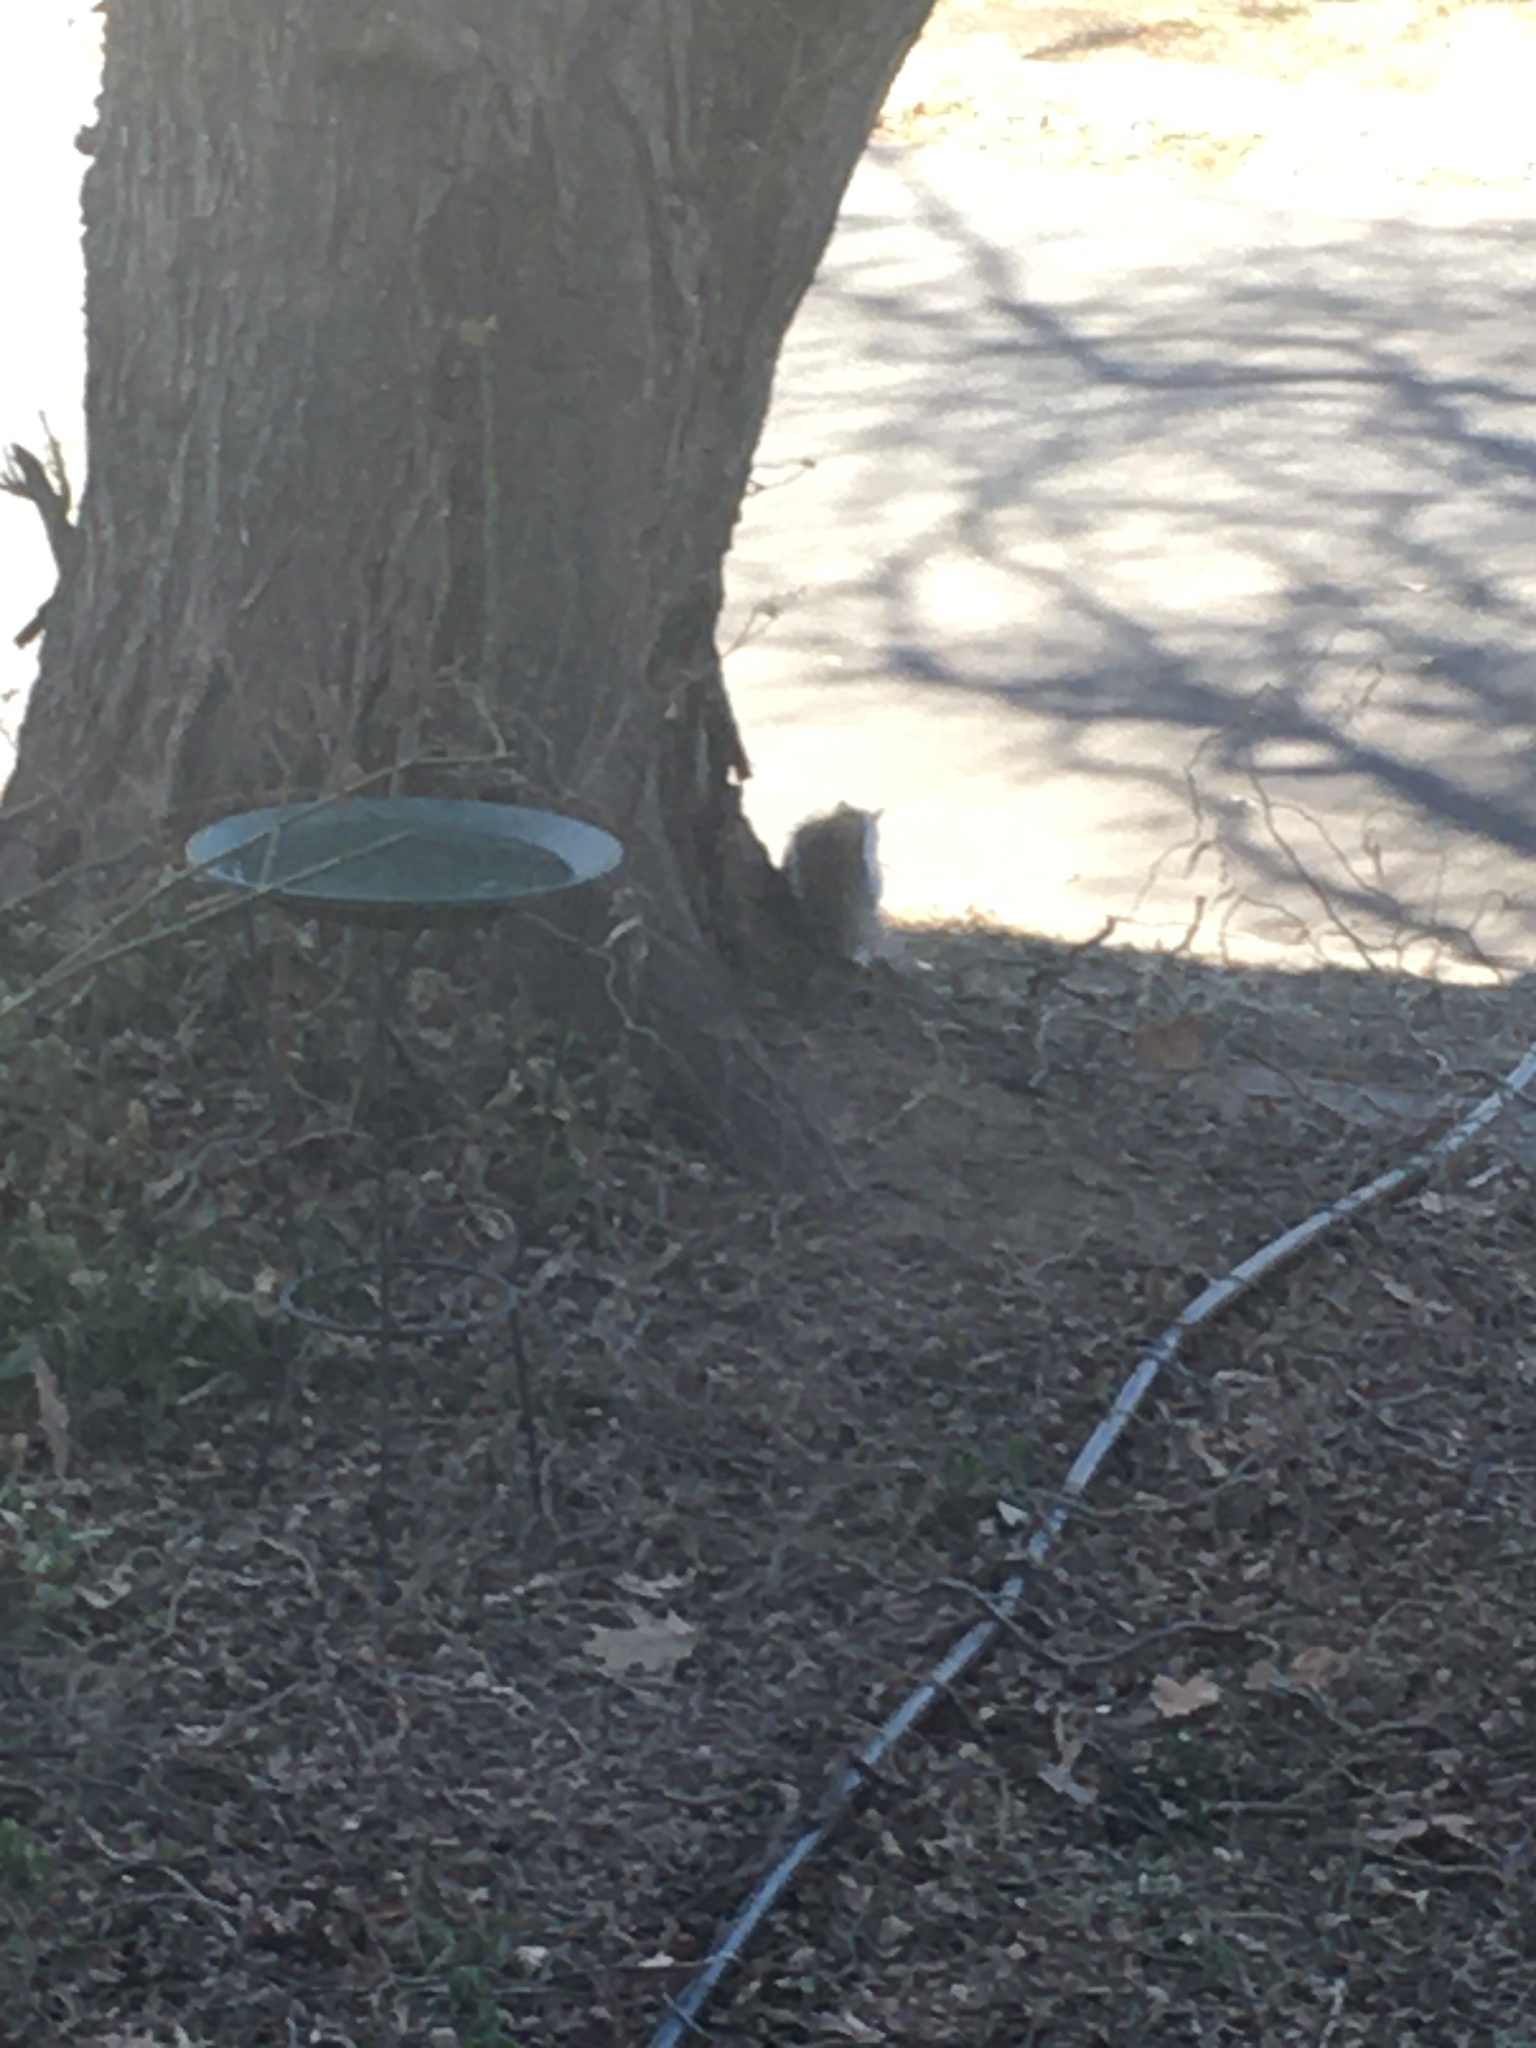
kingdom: Animalia
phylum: Chordata
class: Mammalia
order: Rodentia
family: Sciuridae
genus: Sciurus
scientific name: Sciurus carolinensis
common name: Eastern gray squirrel
